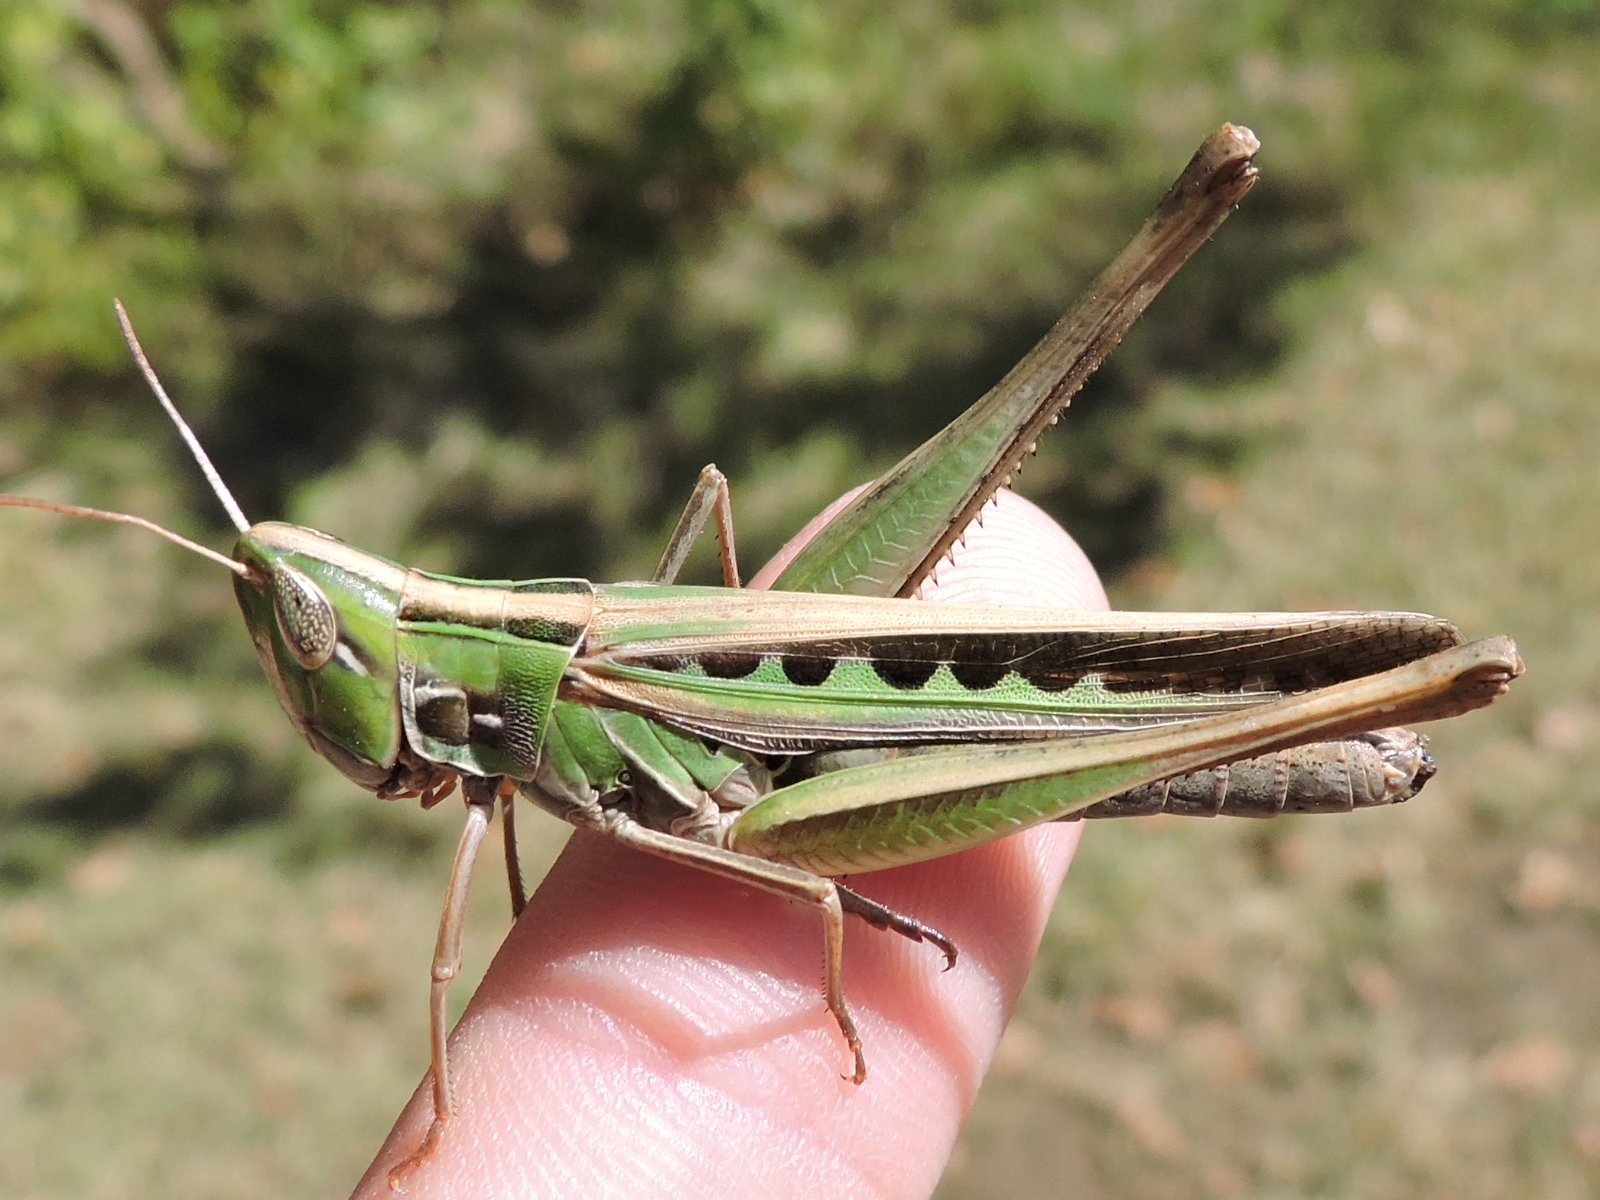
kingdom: Animalia
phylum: Arthropoda
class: Insecta
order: Orthoptera
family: Acrididae
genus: Syrbula
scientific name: Syrbula admirabilis
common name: Handsome grasshopper
